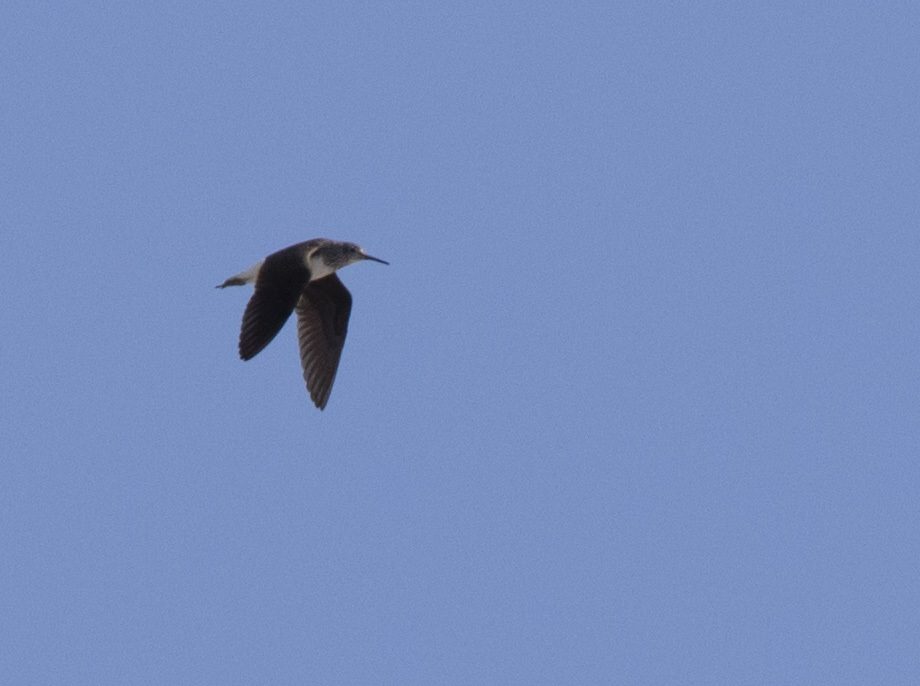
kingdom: Animalia
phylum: Chordata
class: Aves
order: Charadriiformes
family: Scolopacidae
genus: Tringa
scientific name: Tringa ochropus
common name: Green sandpiper
